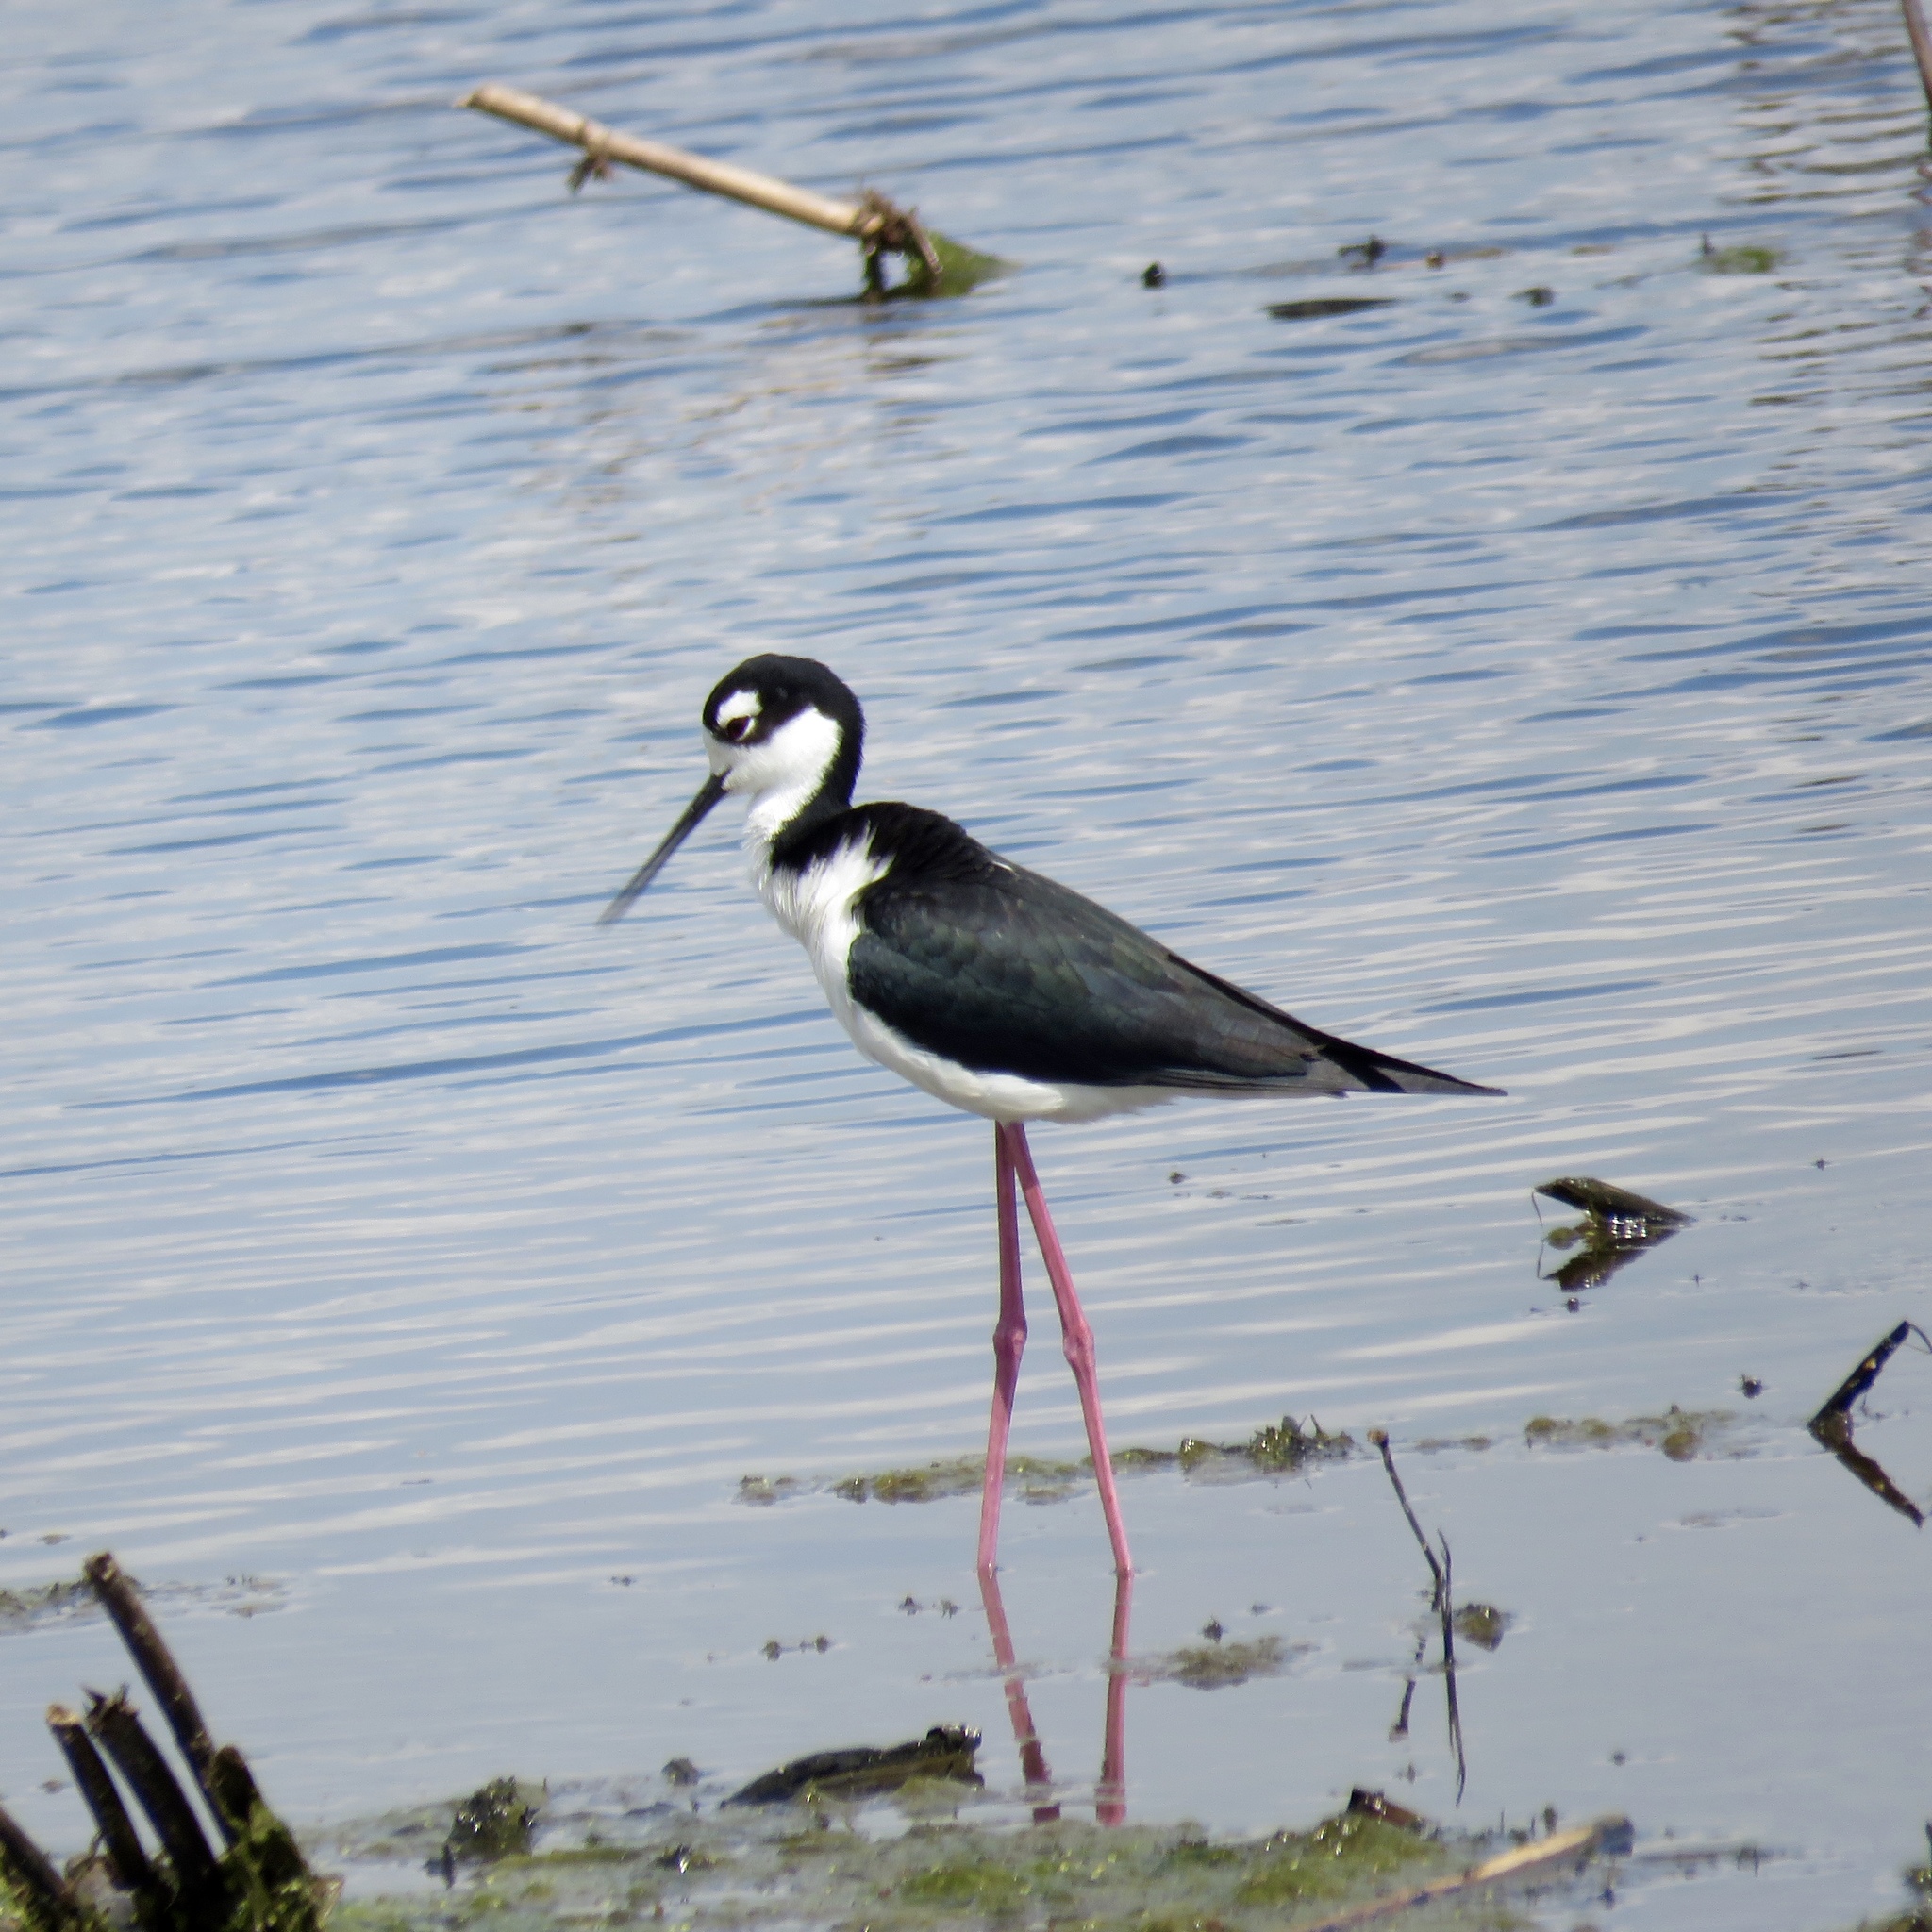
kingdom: Animalia
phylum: Chordata
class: Aves
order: Charadriiformes
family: Recurvirostridae
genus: Himantopus
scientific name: Himantopus mexicanus
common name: Black-necked stilt
